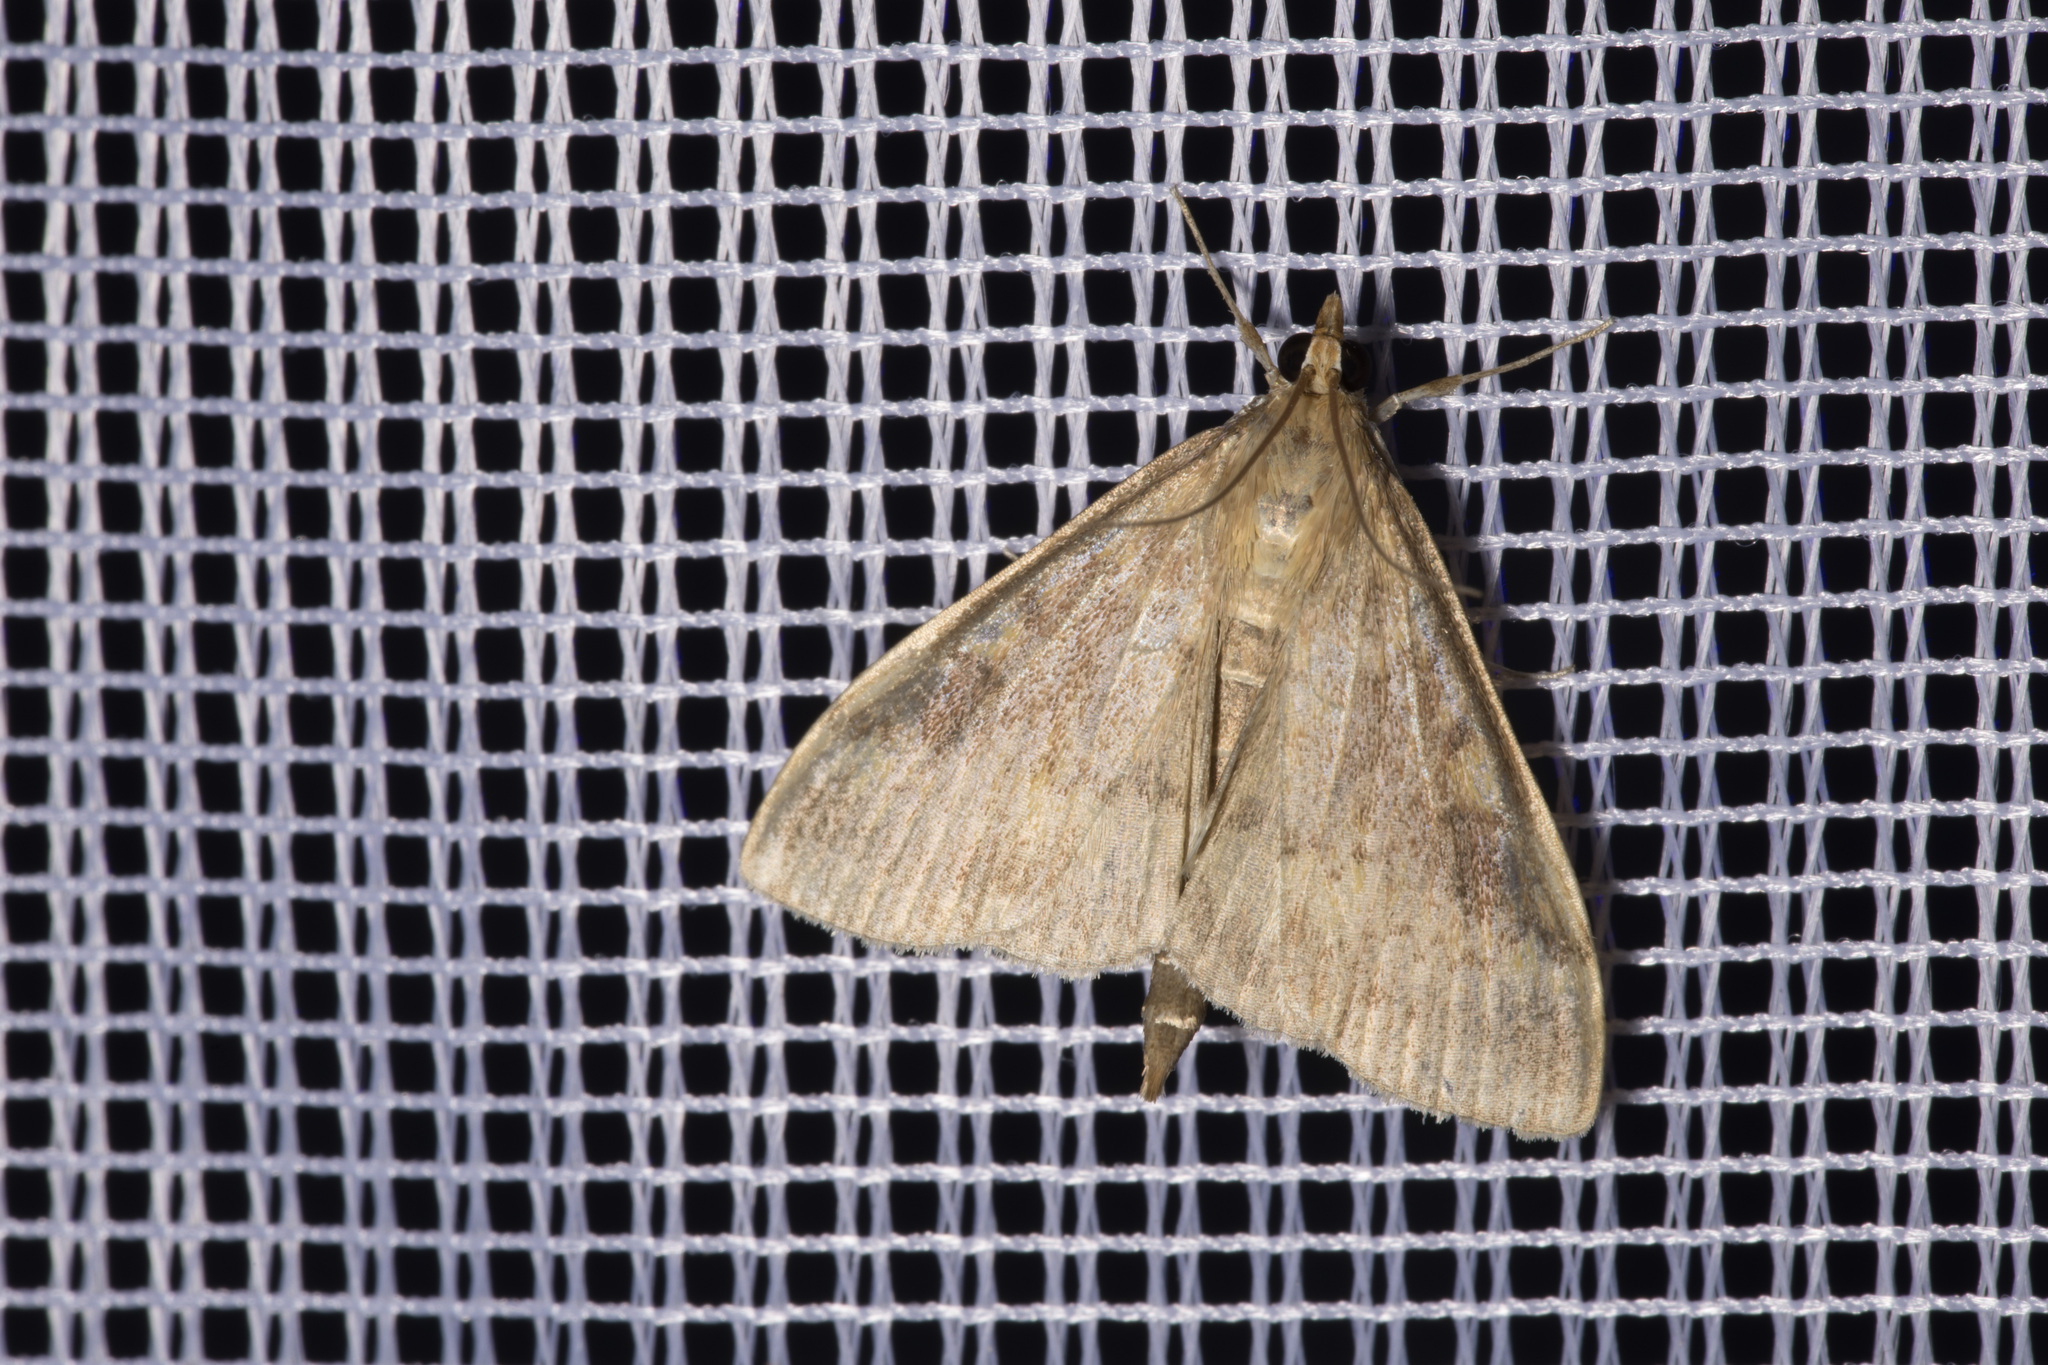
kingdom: Animalia
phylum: Arthropoda
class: Insecta
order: Lepidoptera
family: Crambidae
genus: Ostrinia
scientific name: Ostrinia nubilalis
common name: European corn borer
